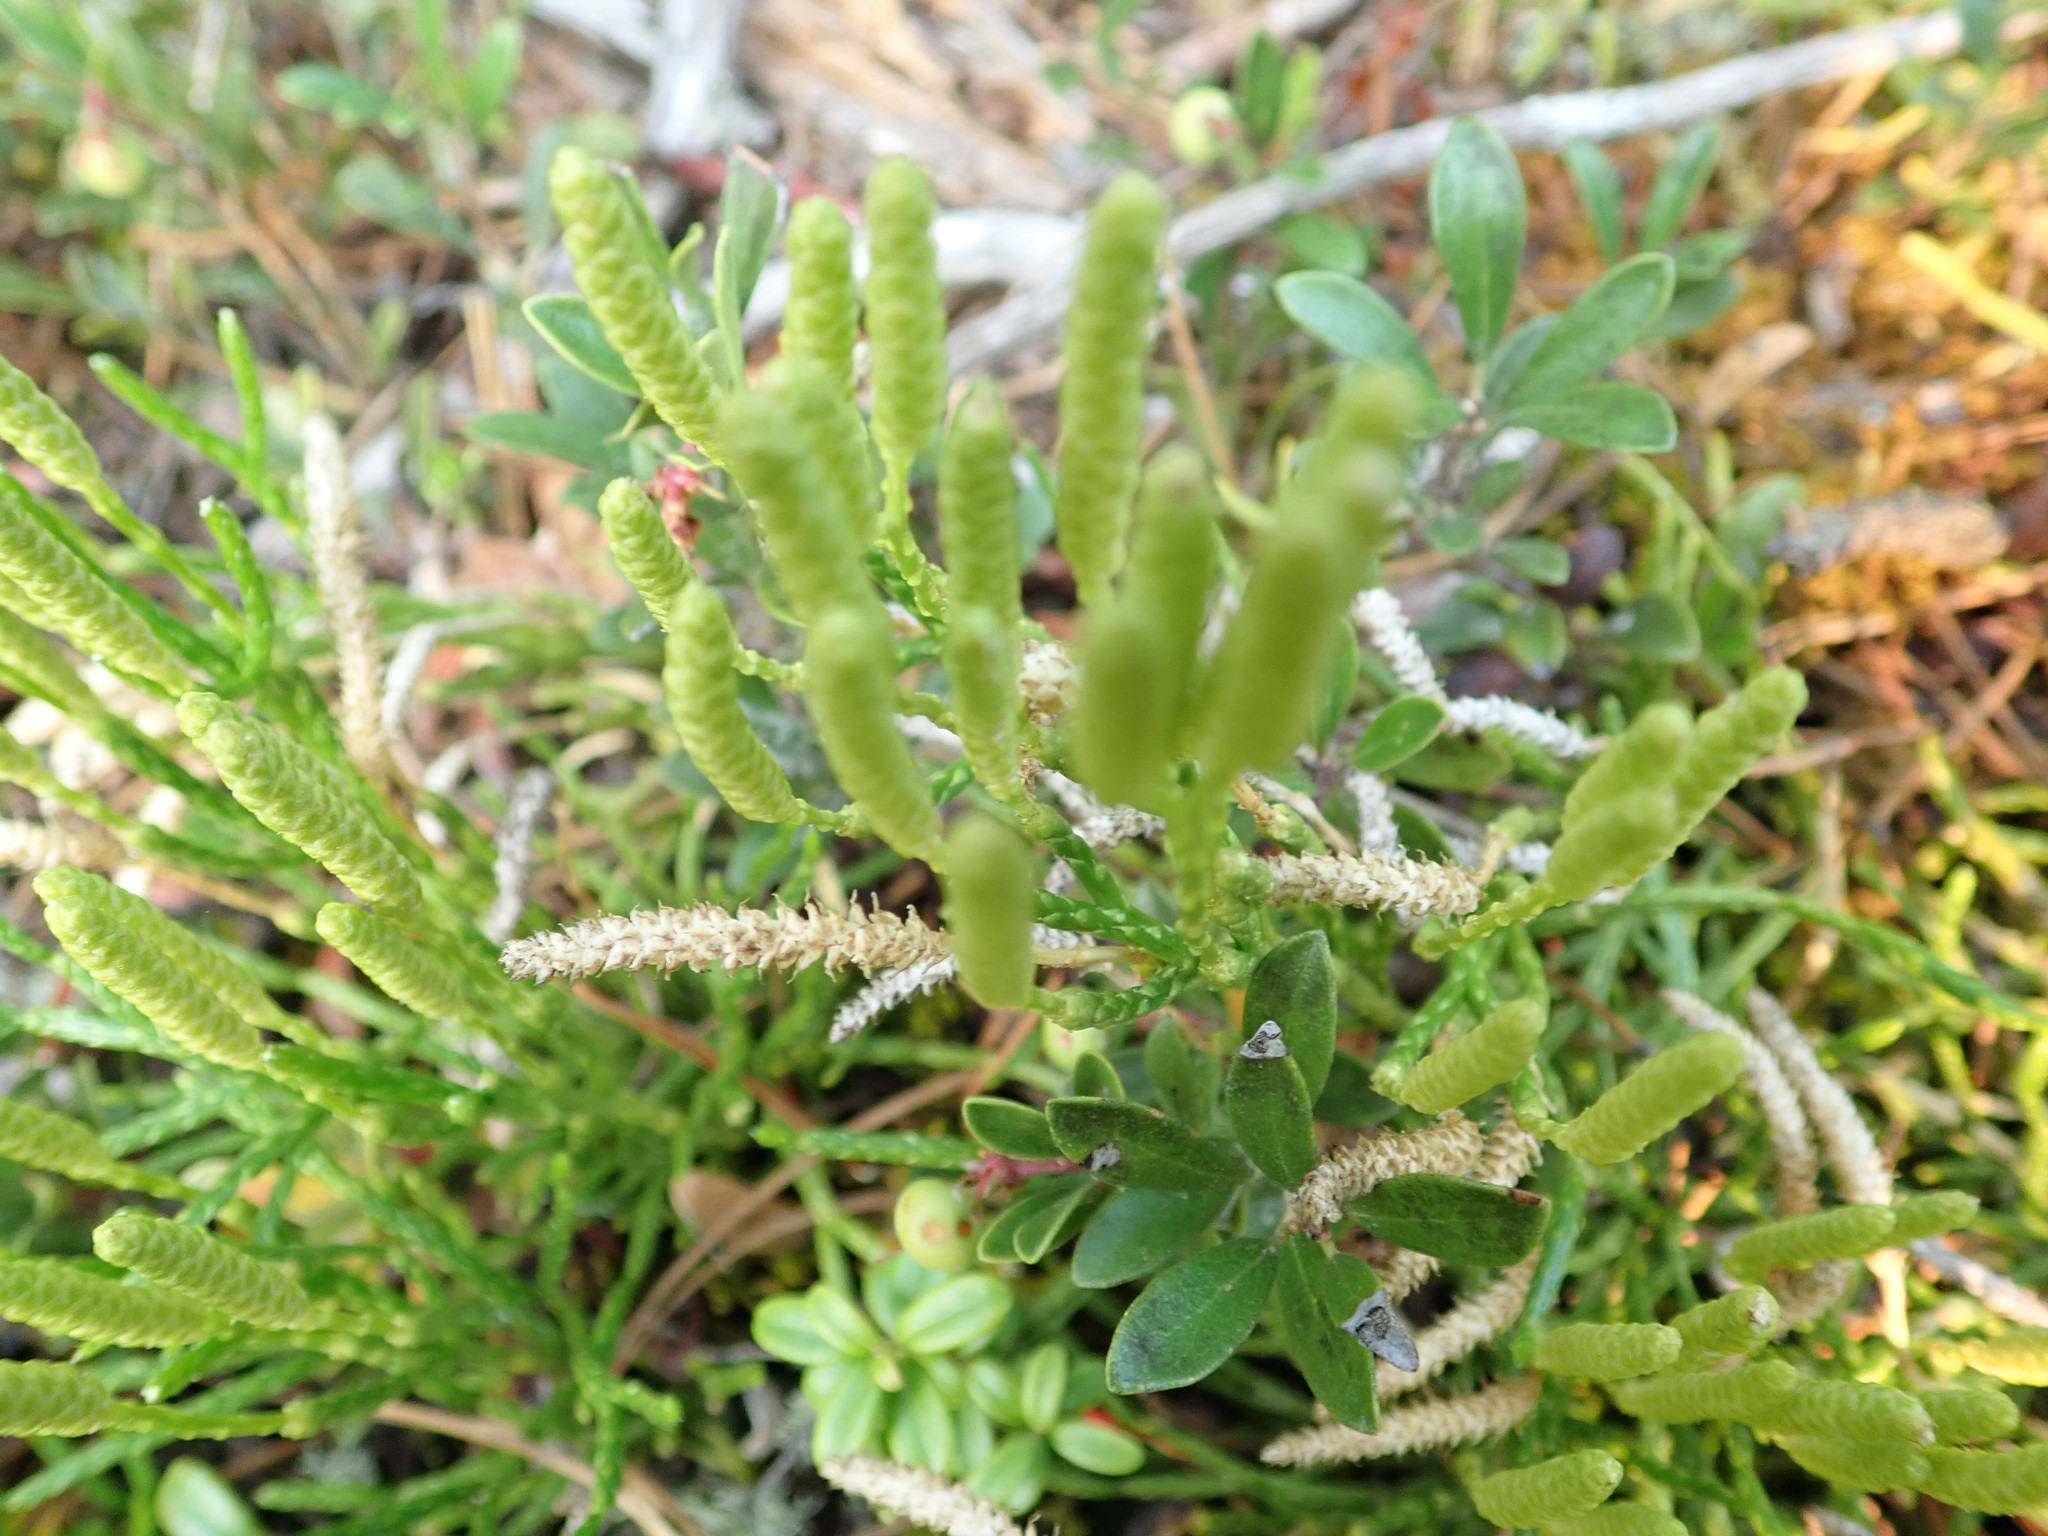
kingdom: Plantae
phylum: Tracheophyta
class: Lycopodiopsida
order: Lycopodiales
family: Lycopodiaceae
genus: Diphasiastrum
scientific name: Diphasiastrum complanatum
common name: Northern running-pine
